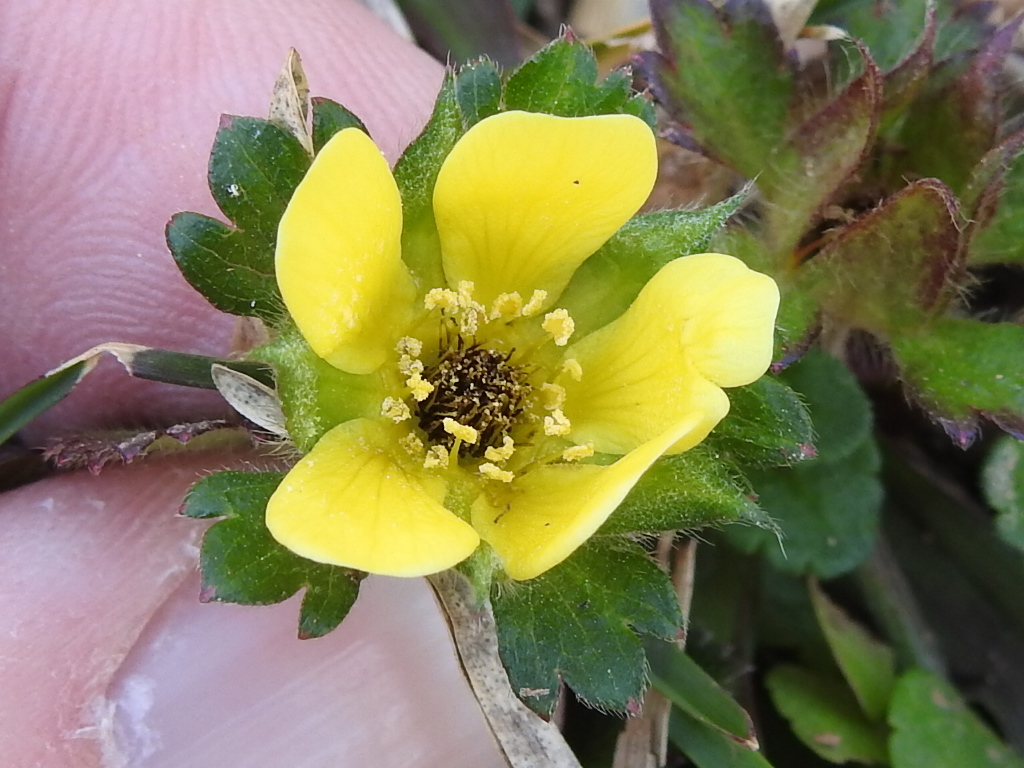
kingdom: Plantae
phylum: Tracheophyta
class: Magnoliopsida
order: Rosales
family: Rosaceae
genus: Potentilla
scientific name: Potentilla indica
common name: Yellow-flowered strawberry
